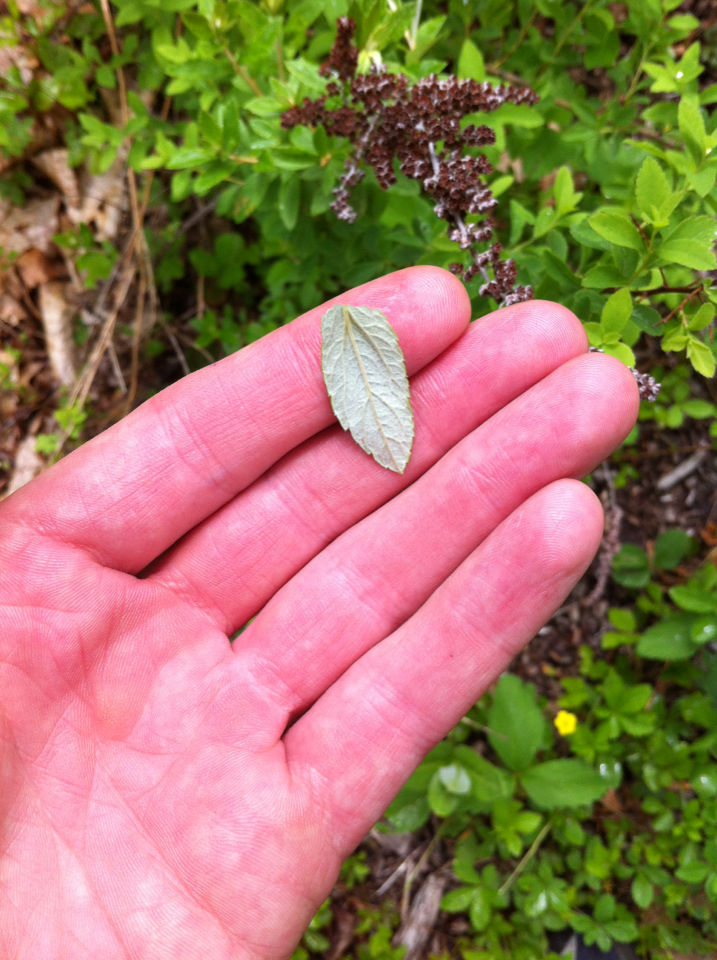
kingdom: Plantae
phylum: Tracheophyta
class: Magnoliopsida
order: Rosales
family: Rosaceae
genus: Spiraea
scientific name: Spiraea tomentosa
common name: Hardhack
